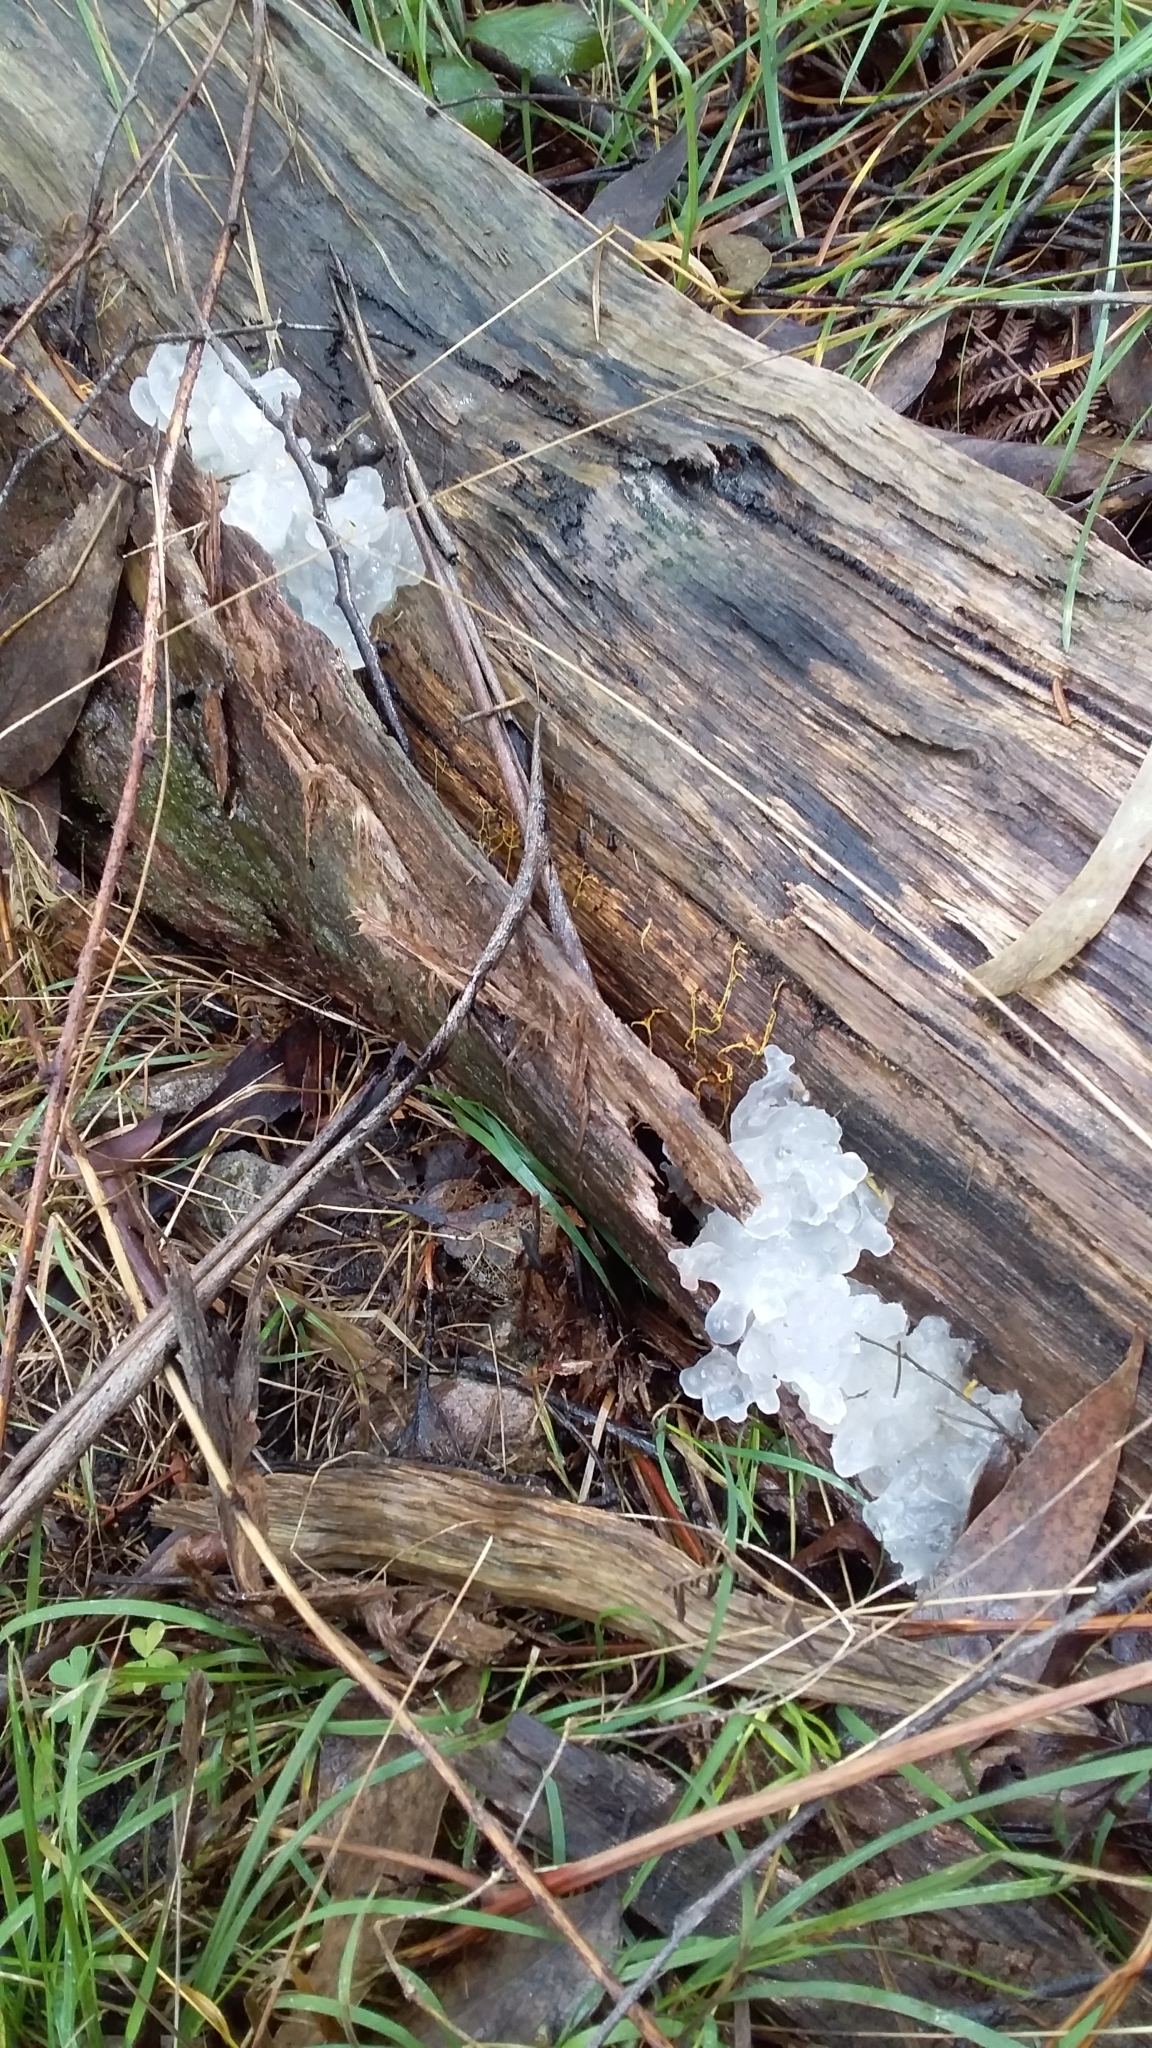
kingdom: Fungi
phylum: Basidiomycota
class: Tremellomycetes
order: Tremellales
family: Tremellaceae
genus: Tremella
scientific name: Tremella fuciformis
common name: Snow fungus
